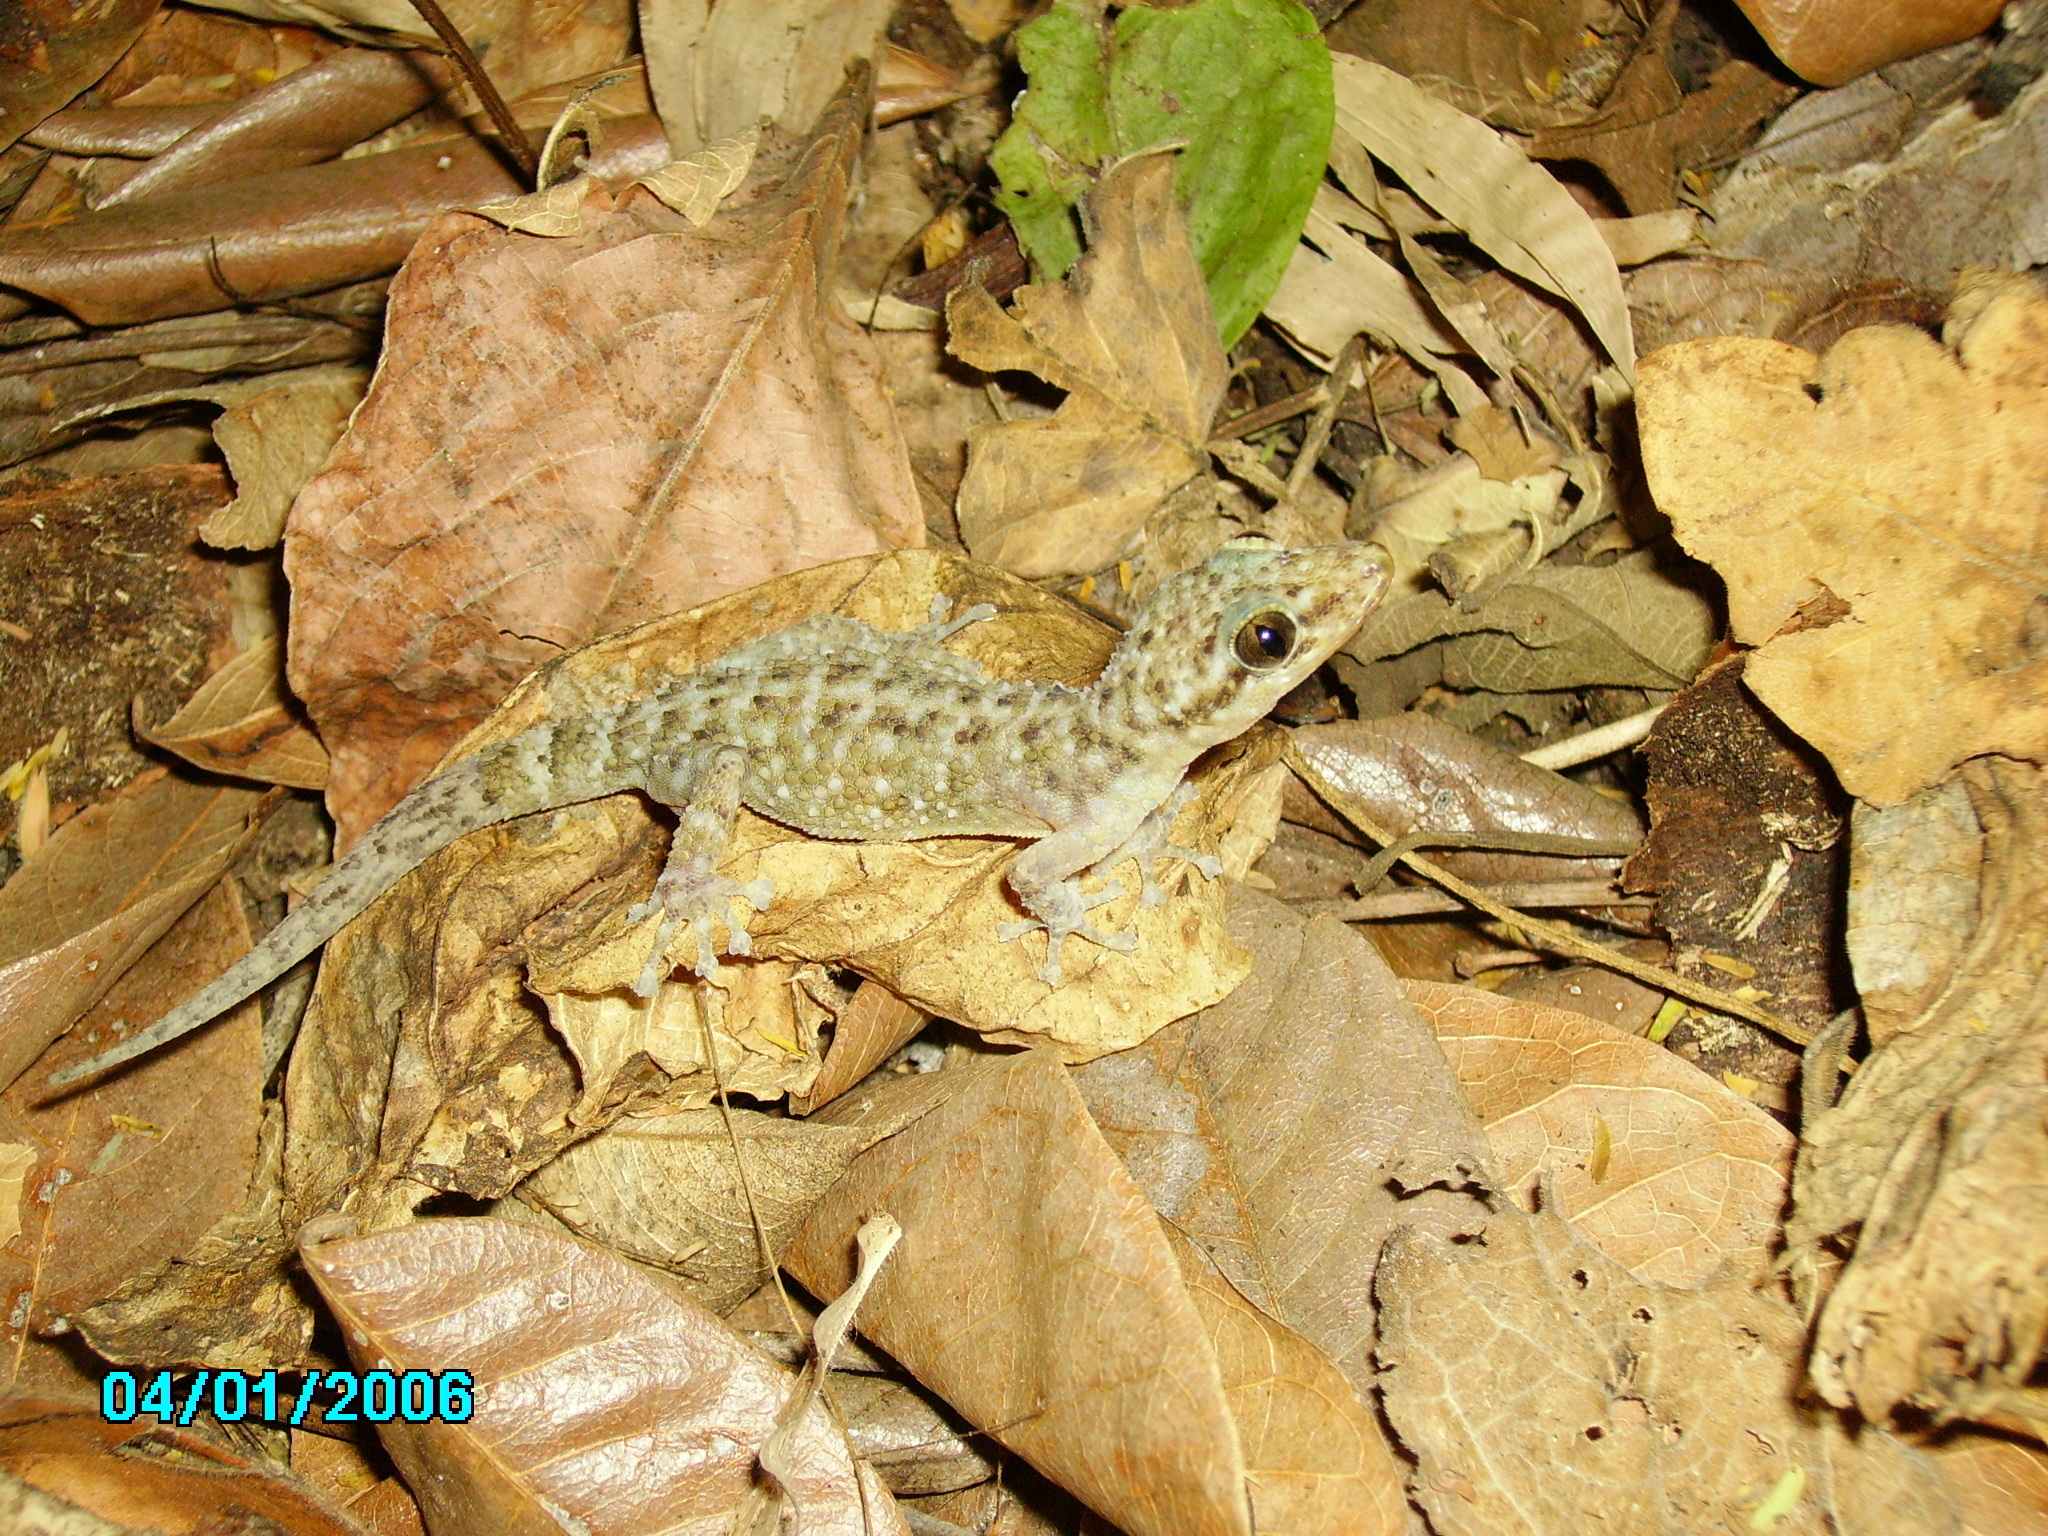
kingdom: Animalia
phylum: Chordata
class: Squamata
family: Phyllodactylidae
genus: Phyllodactylus
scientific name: Phyllodactylus tuberculosus
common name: Yellowbelly  gecko
